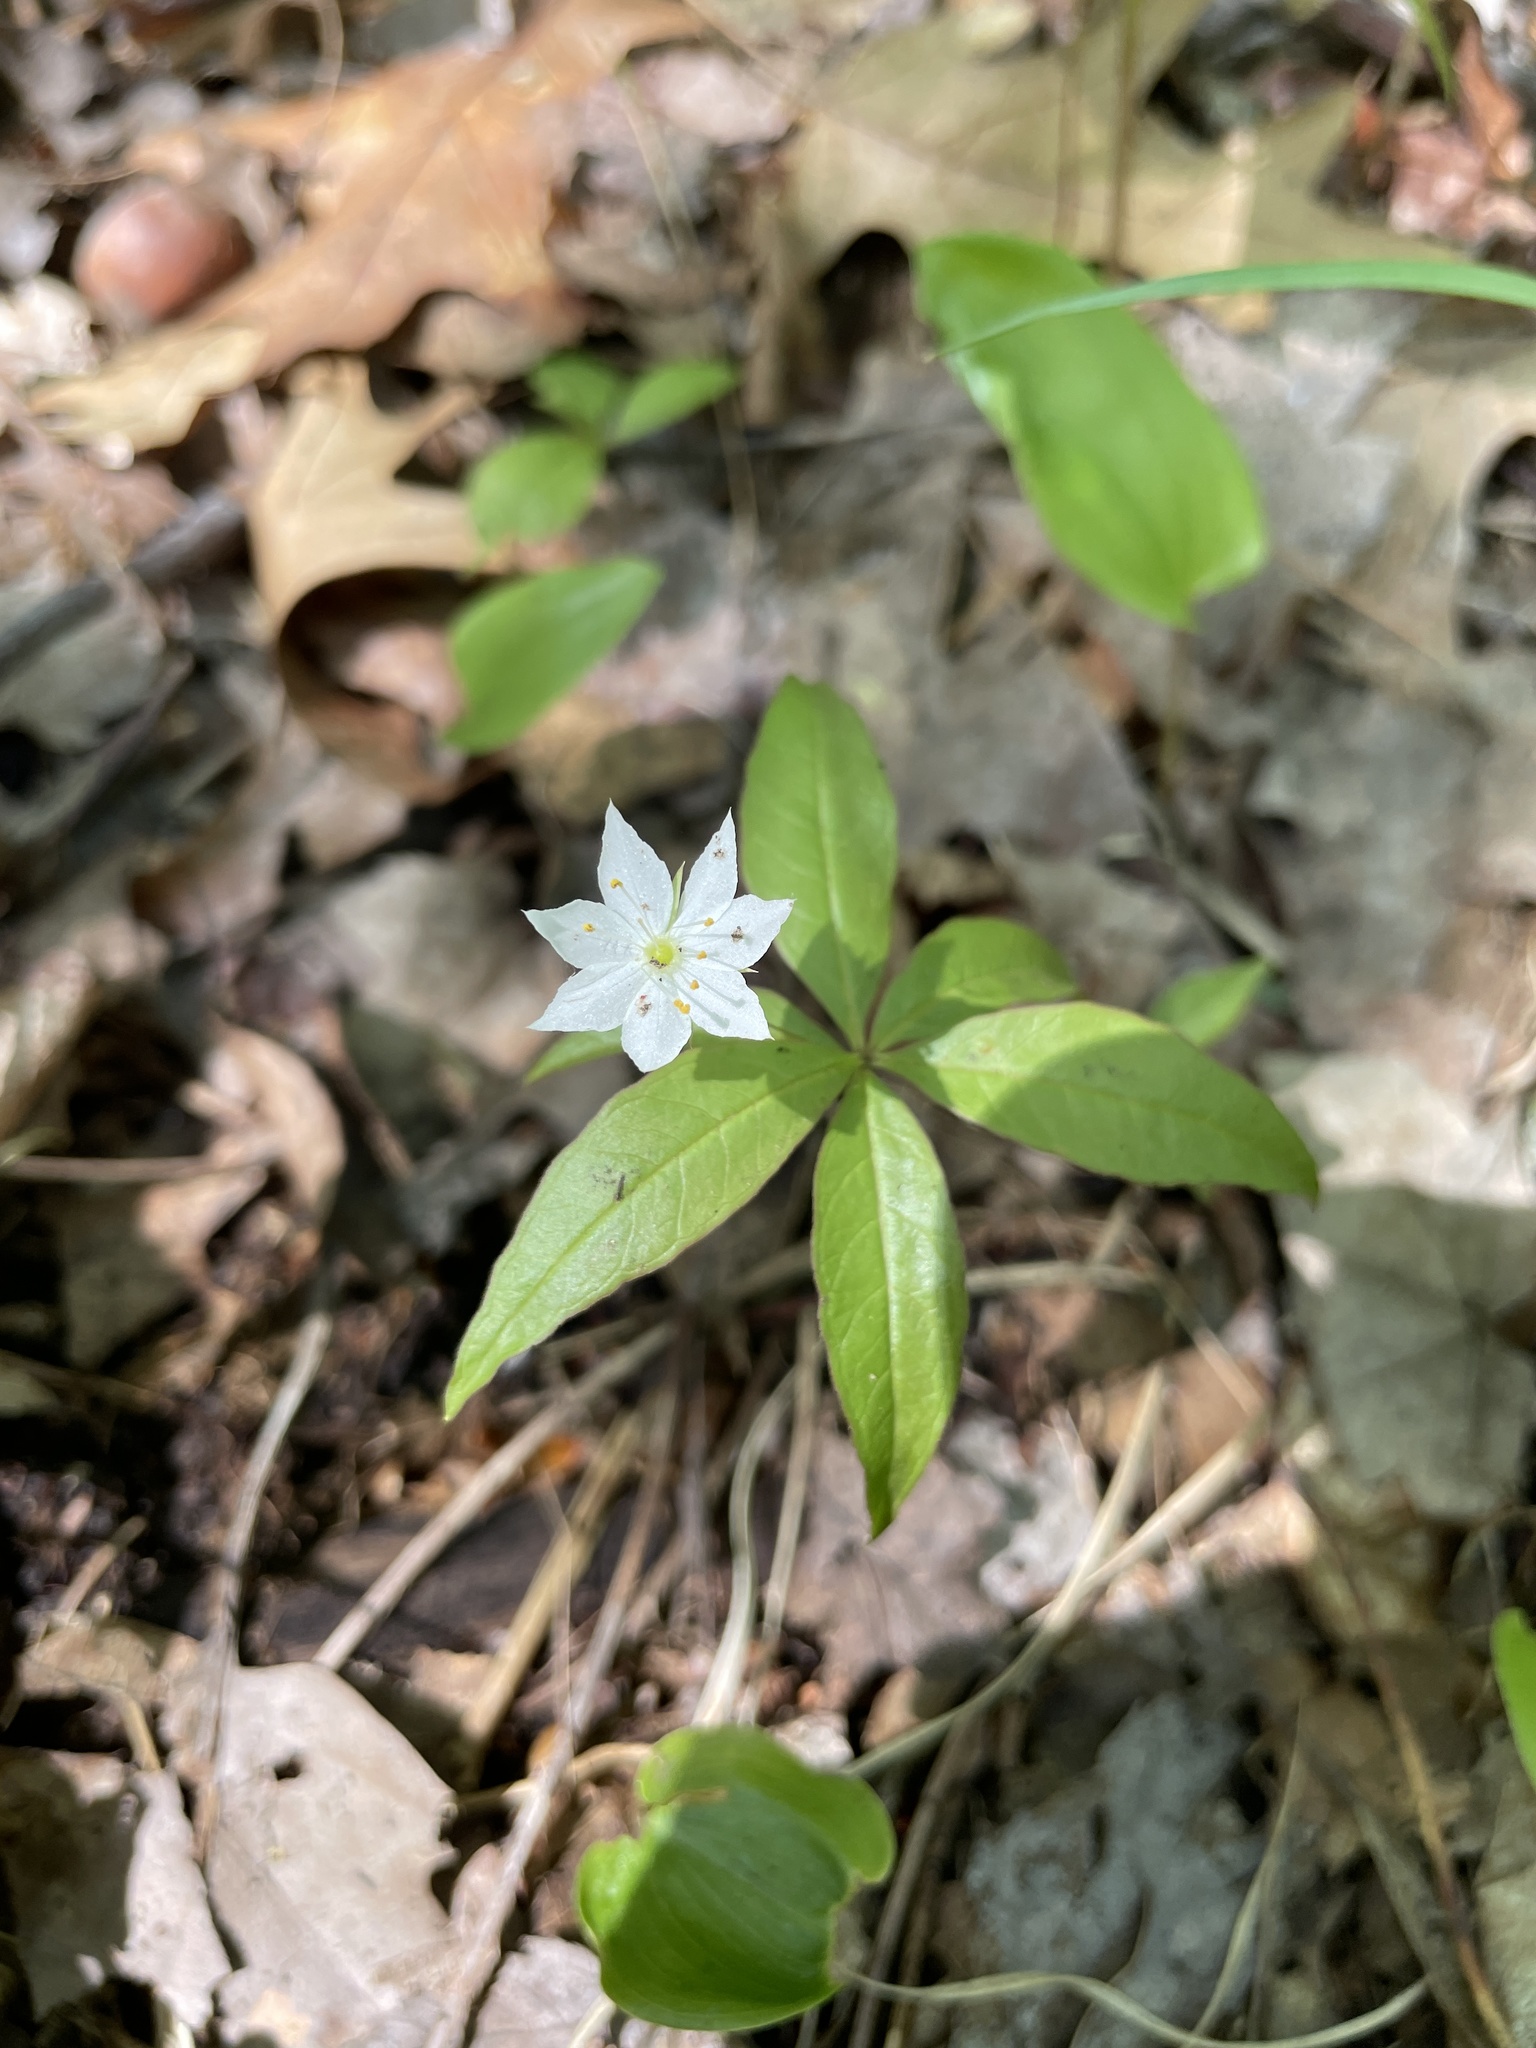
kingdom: Plantae
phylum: Tracheophyta
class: Magnoliopsida
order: Ericales
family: Primulaceae
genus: Lysimachia
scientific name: Lysimachia borealis
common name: American starflower
